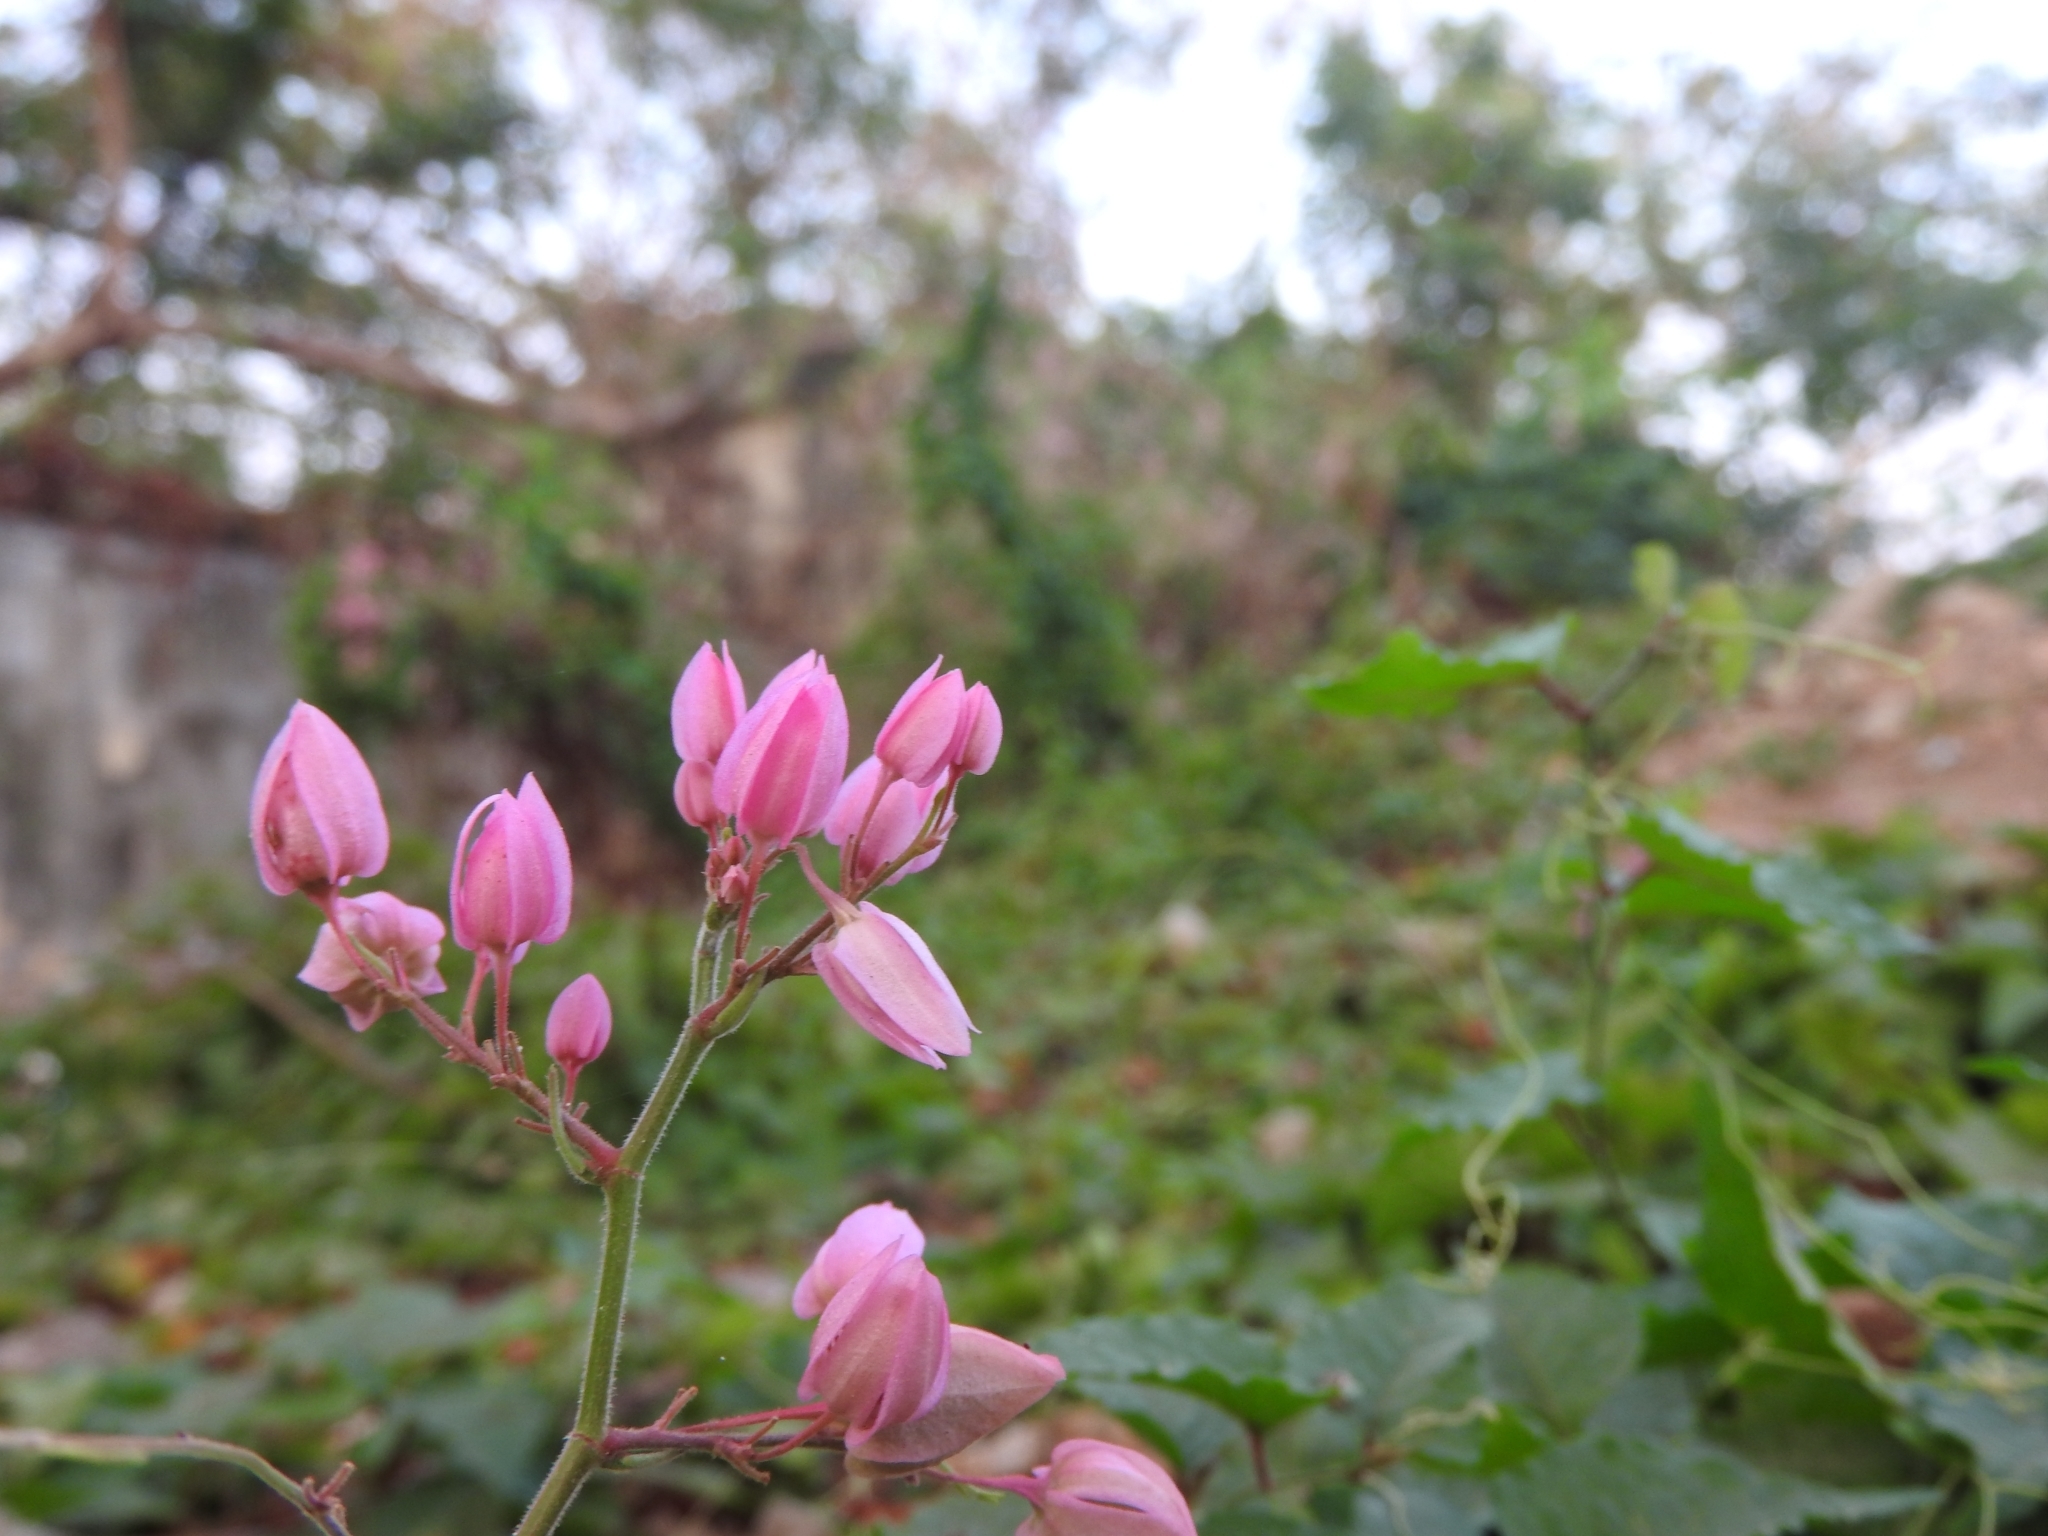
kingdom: Plantae
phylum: Tracheophyta
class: Magnoliopsida
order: Caryophyllales
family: Polygonaceae
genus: Antigonon
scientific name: Antigonon leptopus
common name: Coral vine
